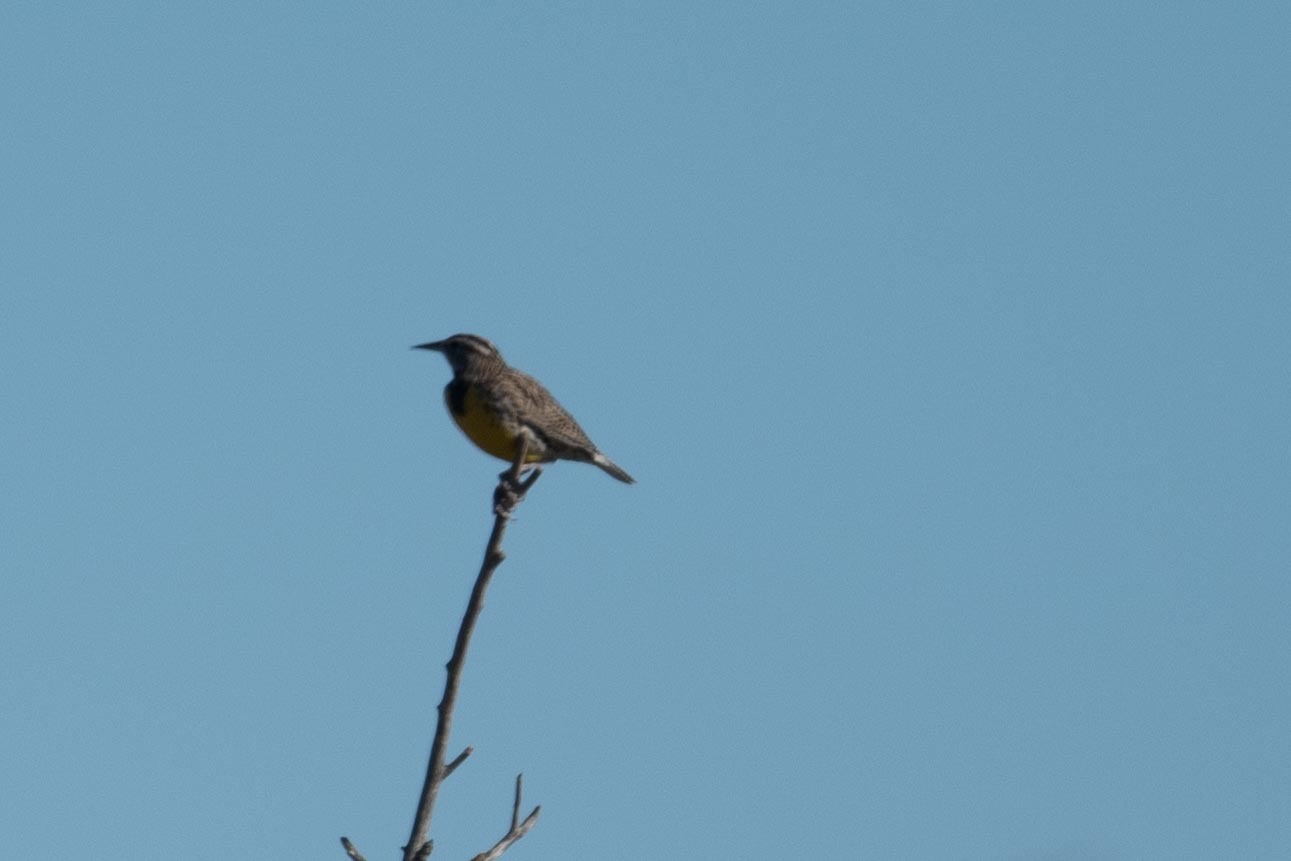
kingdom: Animalia
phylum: Chordata
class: Aves
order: Passeriformes
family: Icteridae
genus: Sturnella
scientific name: Sturnella neglecta
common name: Western meadowlark
